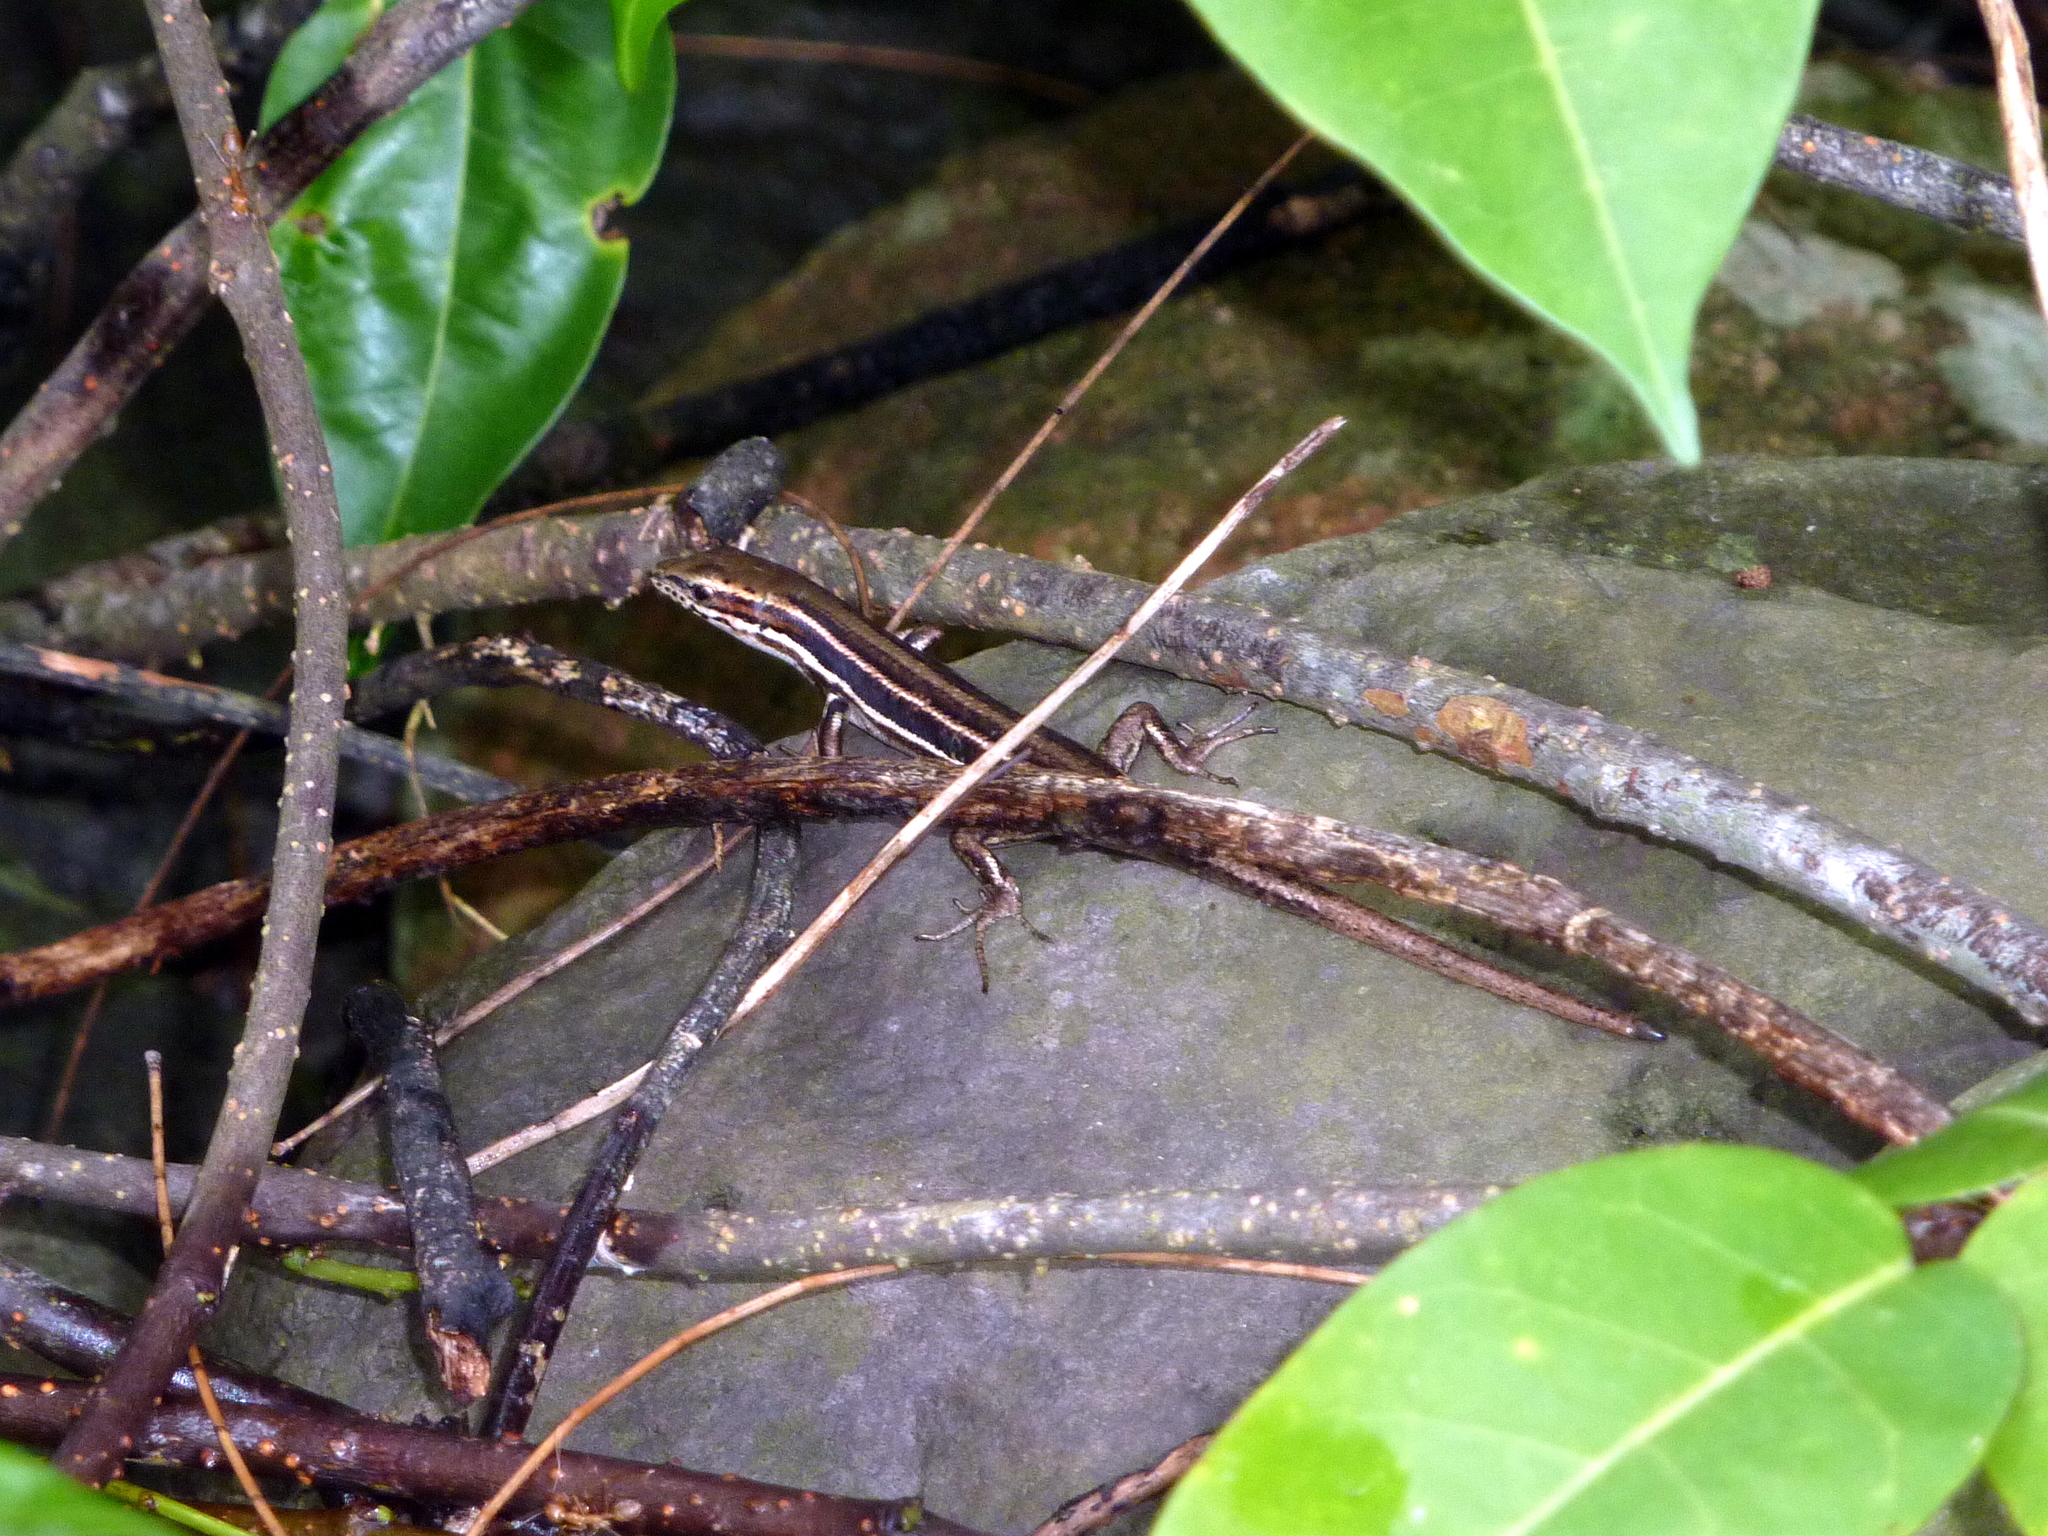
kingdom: Animalia
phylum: Chordata
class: Squamata
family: Scincidae
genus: Emoia
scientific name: Emoia jakati
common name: Kopstein's emo skink
